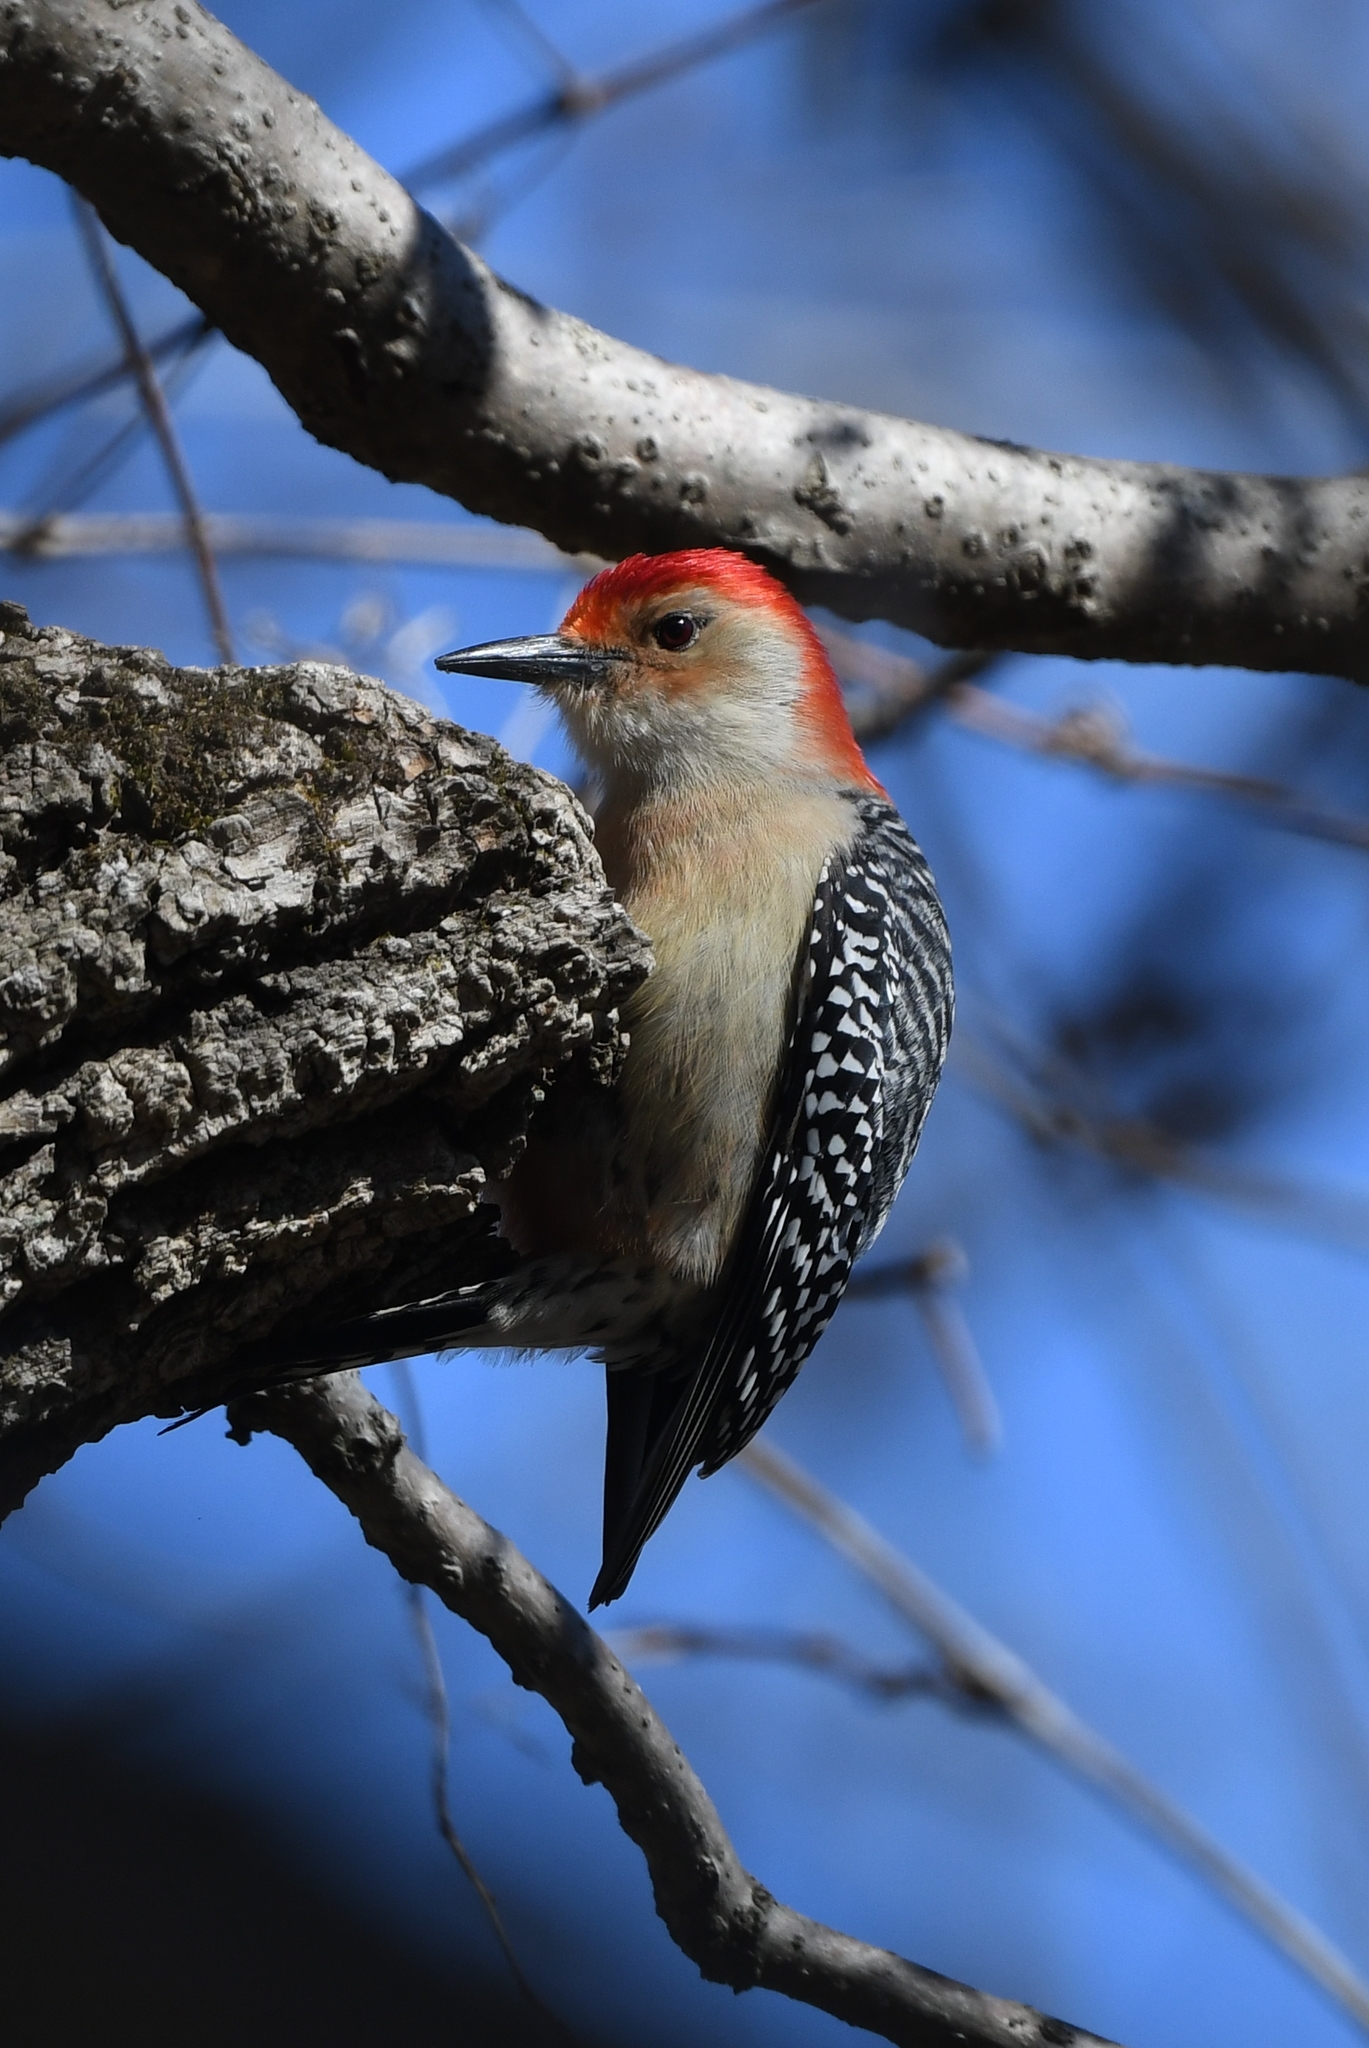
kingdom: Animalia
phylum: Chordata
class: Aves
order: Piciformes
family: Picidae
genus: Melanerpes
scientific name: Melanerpes carolinus
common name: Red-bellied woodpecker
